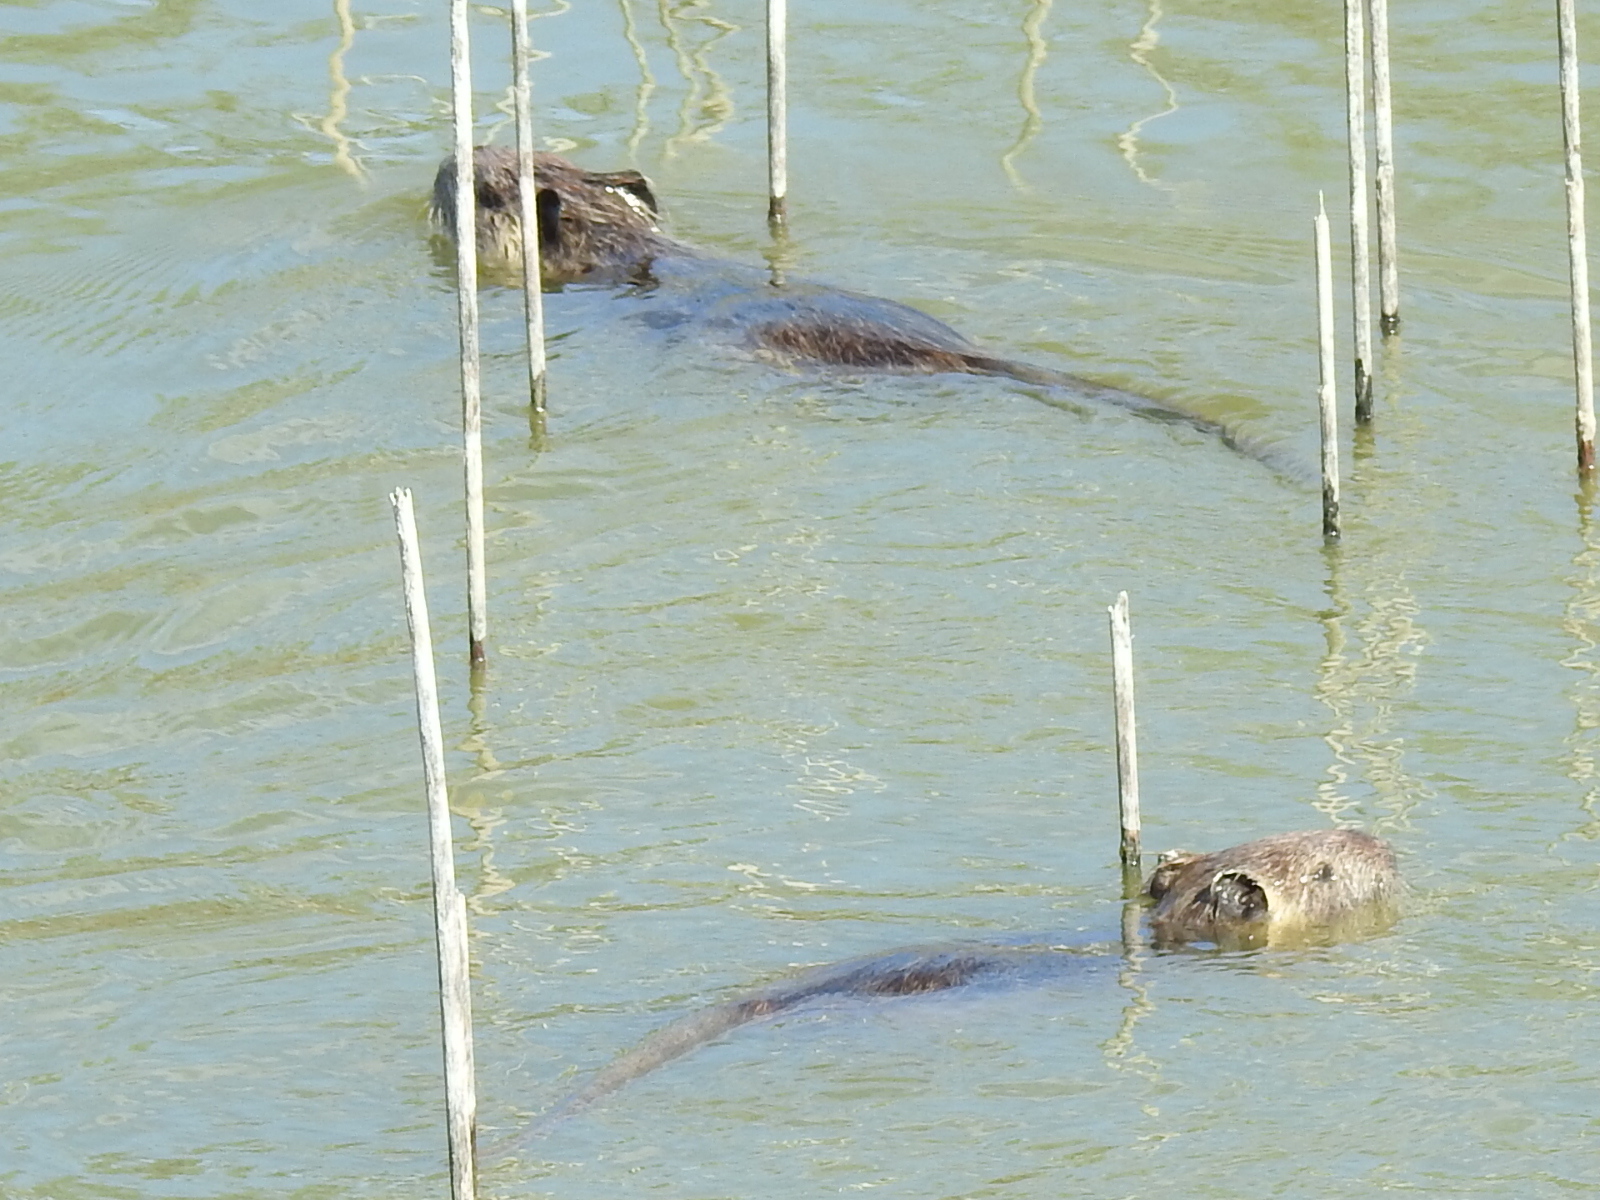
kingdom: Animalia
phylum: Chordata
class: Mammalia
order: Rodentia
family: Myocastoridae
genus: Myocastor
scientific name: Myocastor coypus
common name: Coypu
